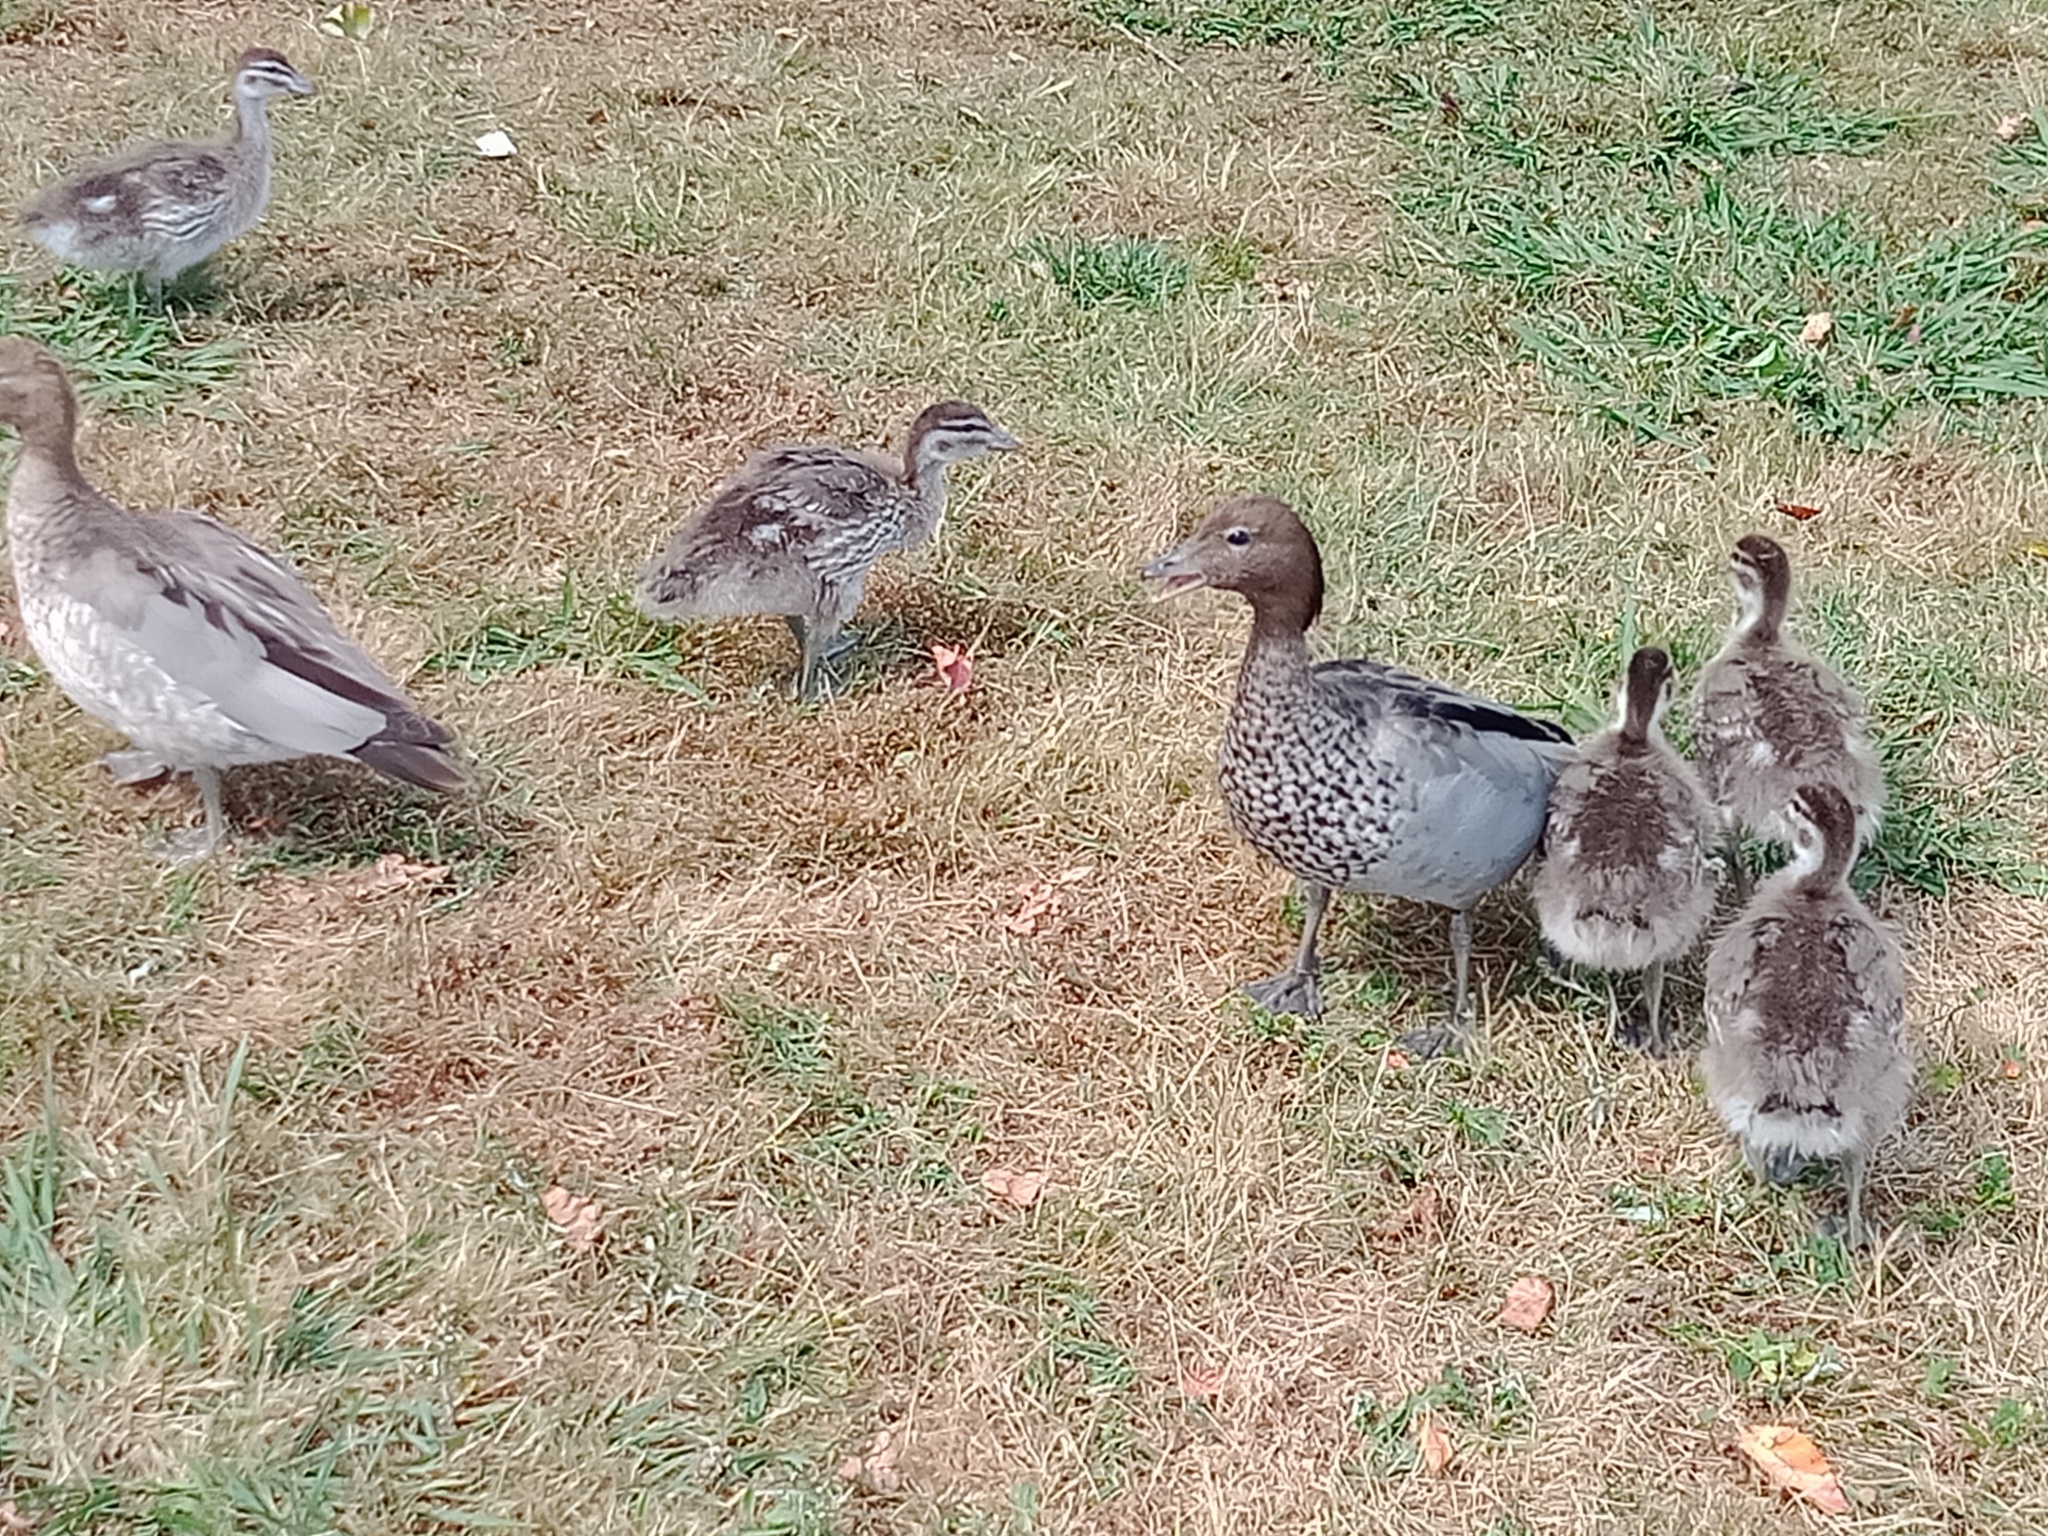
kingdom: Animalia
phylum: Chordata
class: Aves
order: Anseriformes
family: Anatidae
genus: Chenonetta
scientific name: Chenonetta jubata
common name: Maned duck
